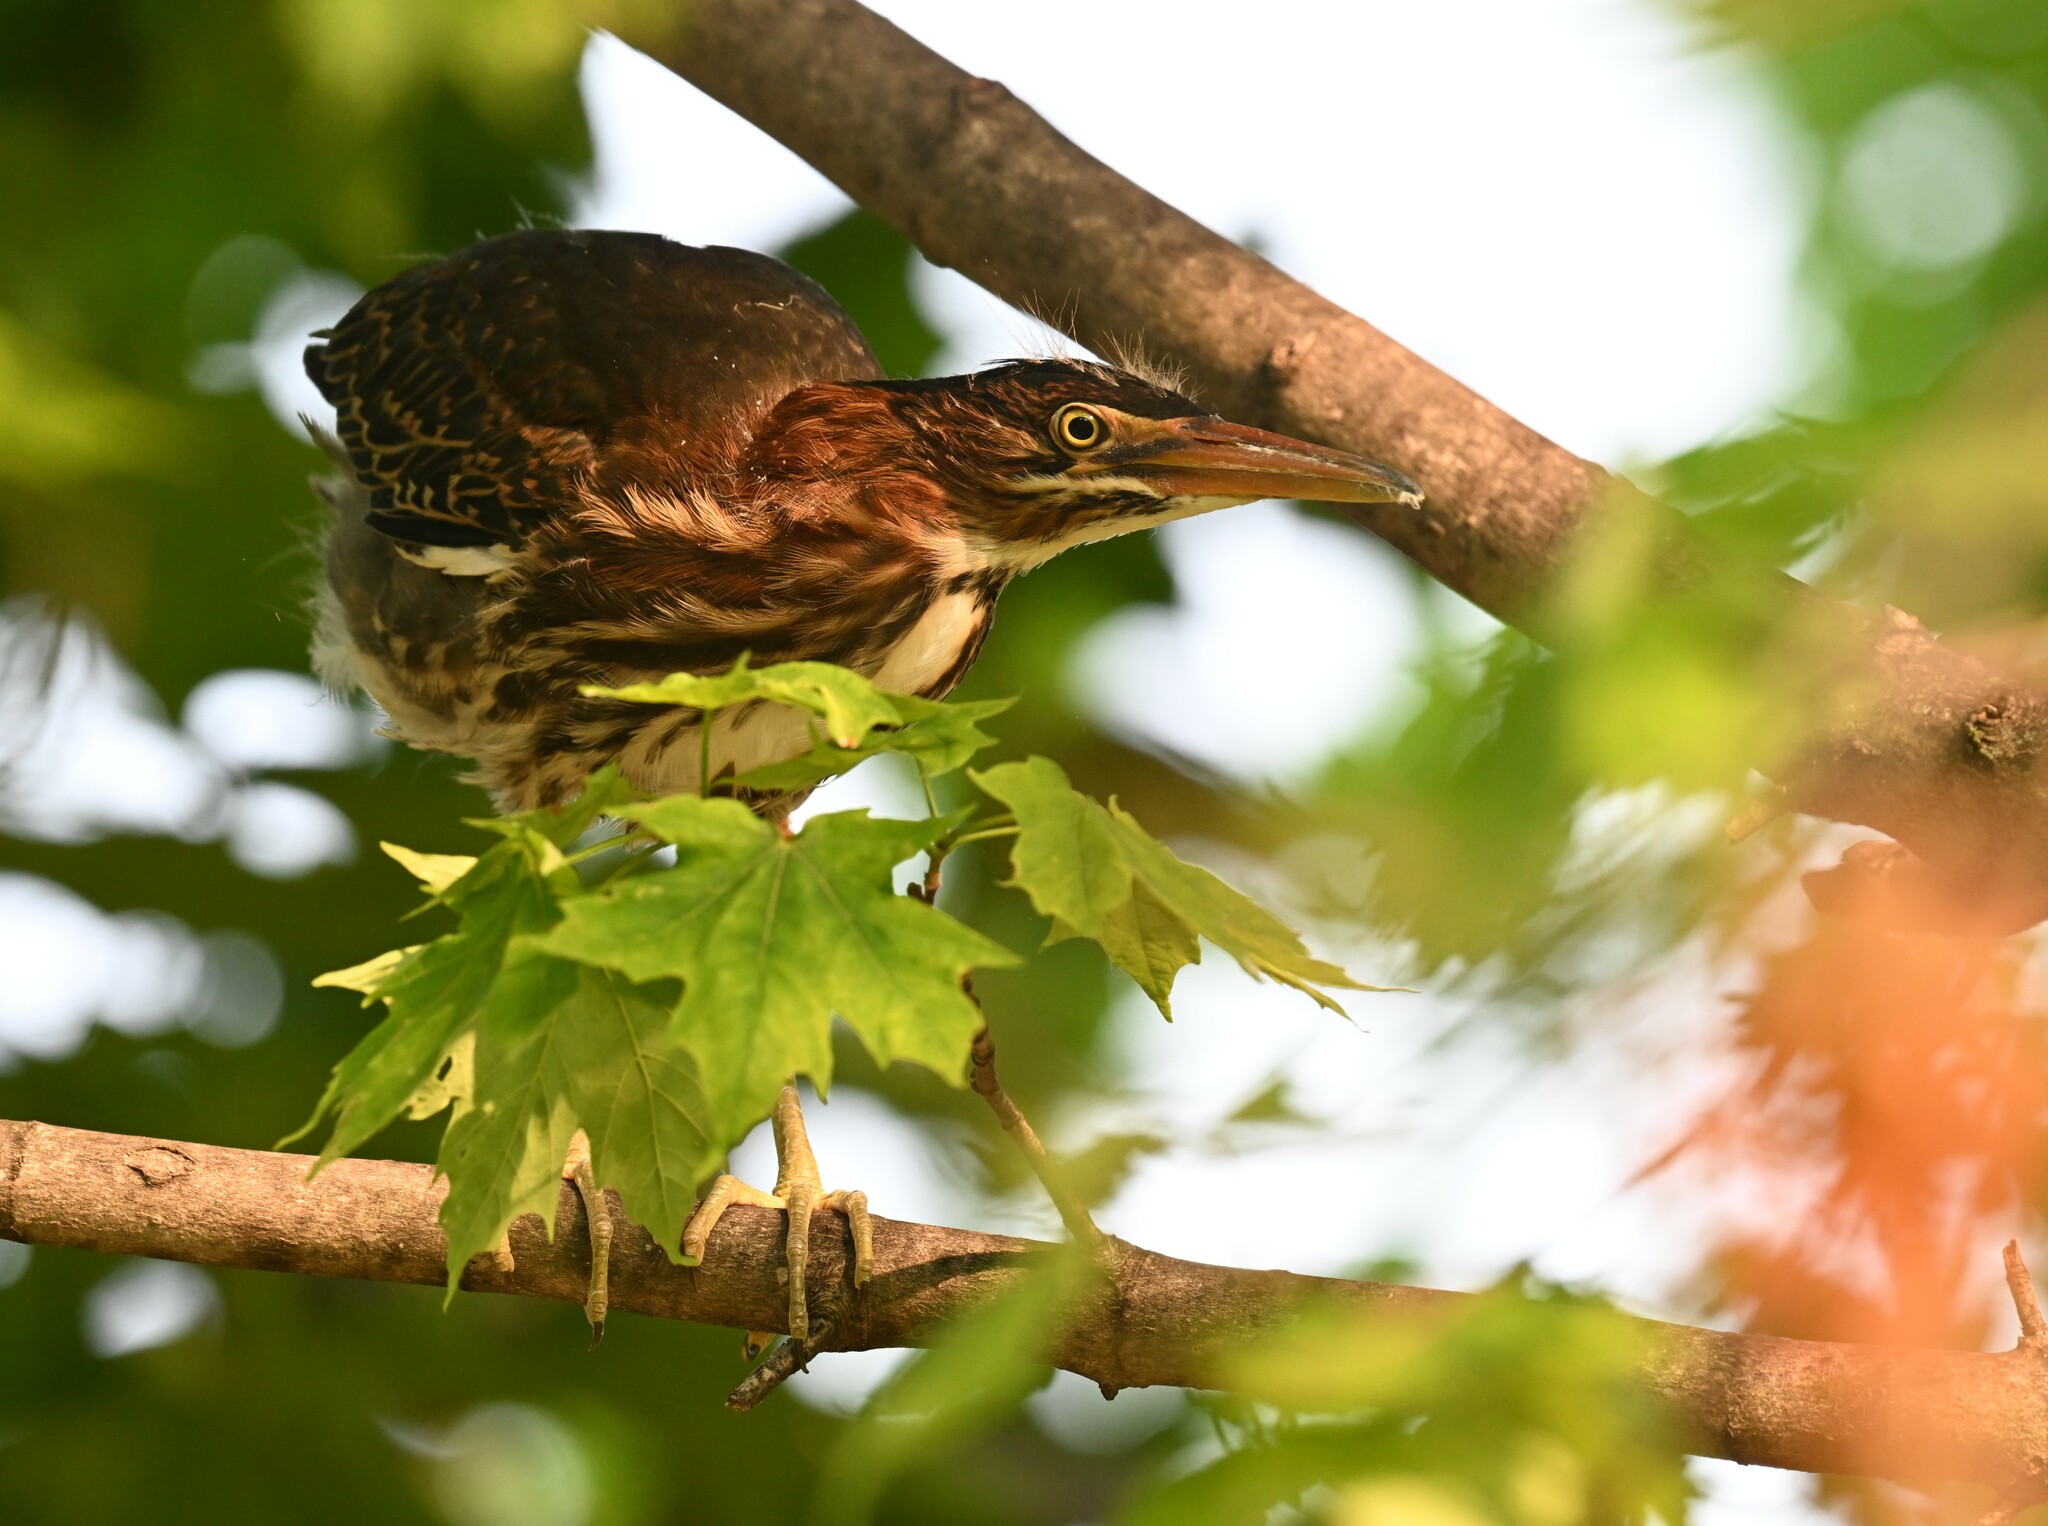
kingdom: Animalia
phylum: Chordata
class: Aves
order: Pelecaniformes
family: Ardeidae
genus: Butorides
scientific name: Butorides virescens
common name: Green heron
